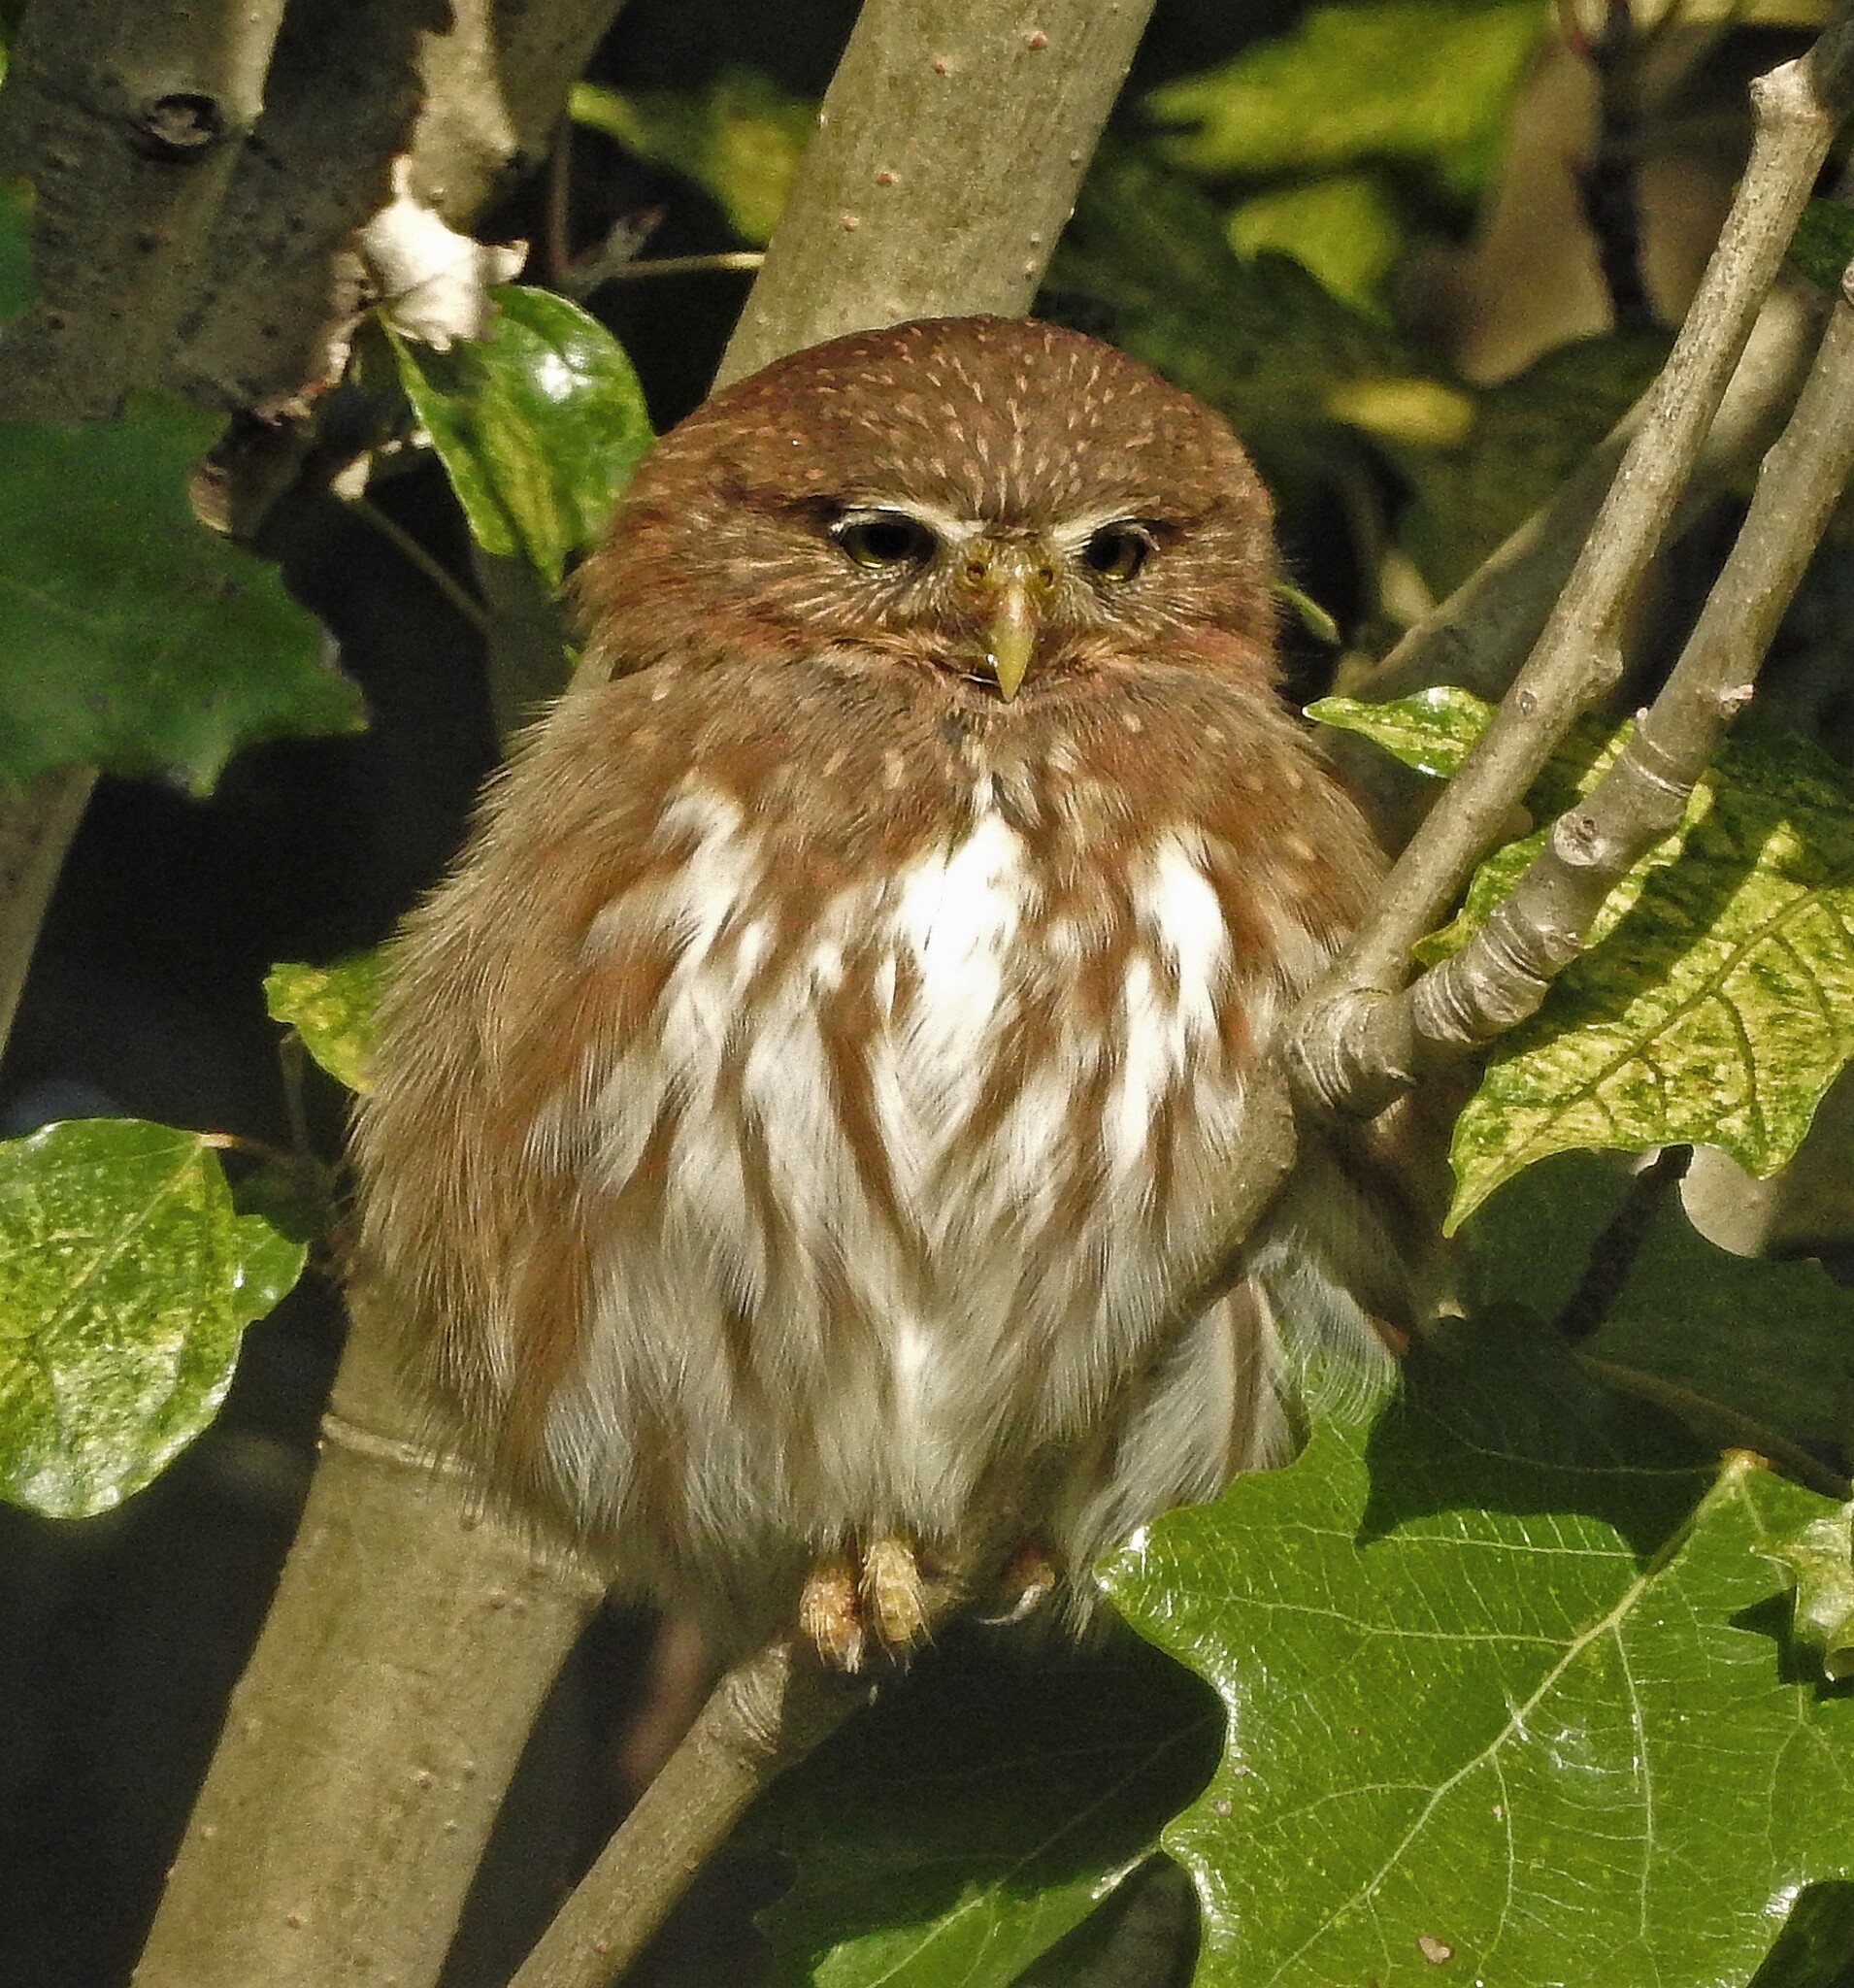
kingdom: Animalia
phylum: Chordata
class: Aves
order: Strigiformes
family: Strigidae
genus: Glaucidium
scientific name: Glaucidium brasilianum
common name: Ferruginous pygmy-owl
